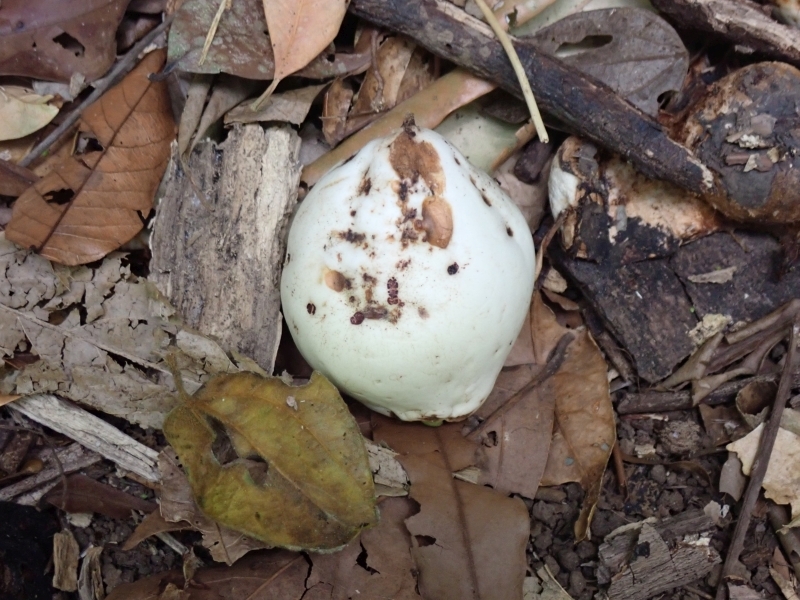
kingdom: Plantae
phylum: Tracheophyta
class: Magnoliopsida
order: Myrtales
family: Myrtaceae
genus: Syzygium
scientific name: Syzygium cormiflorum
